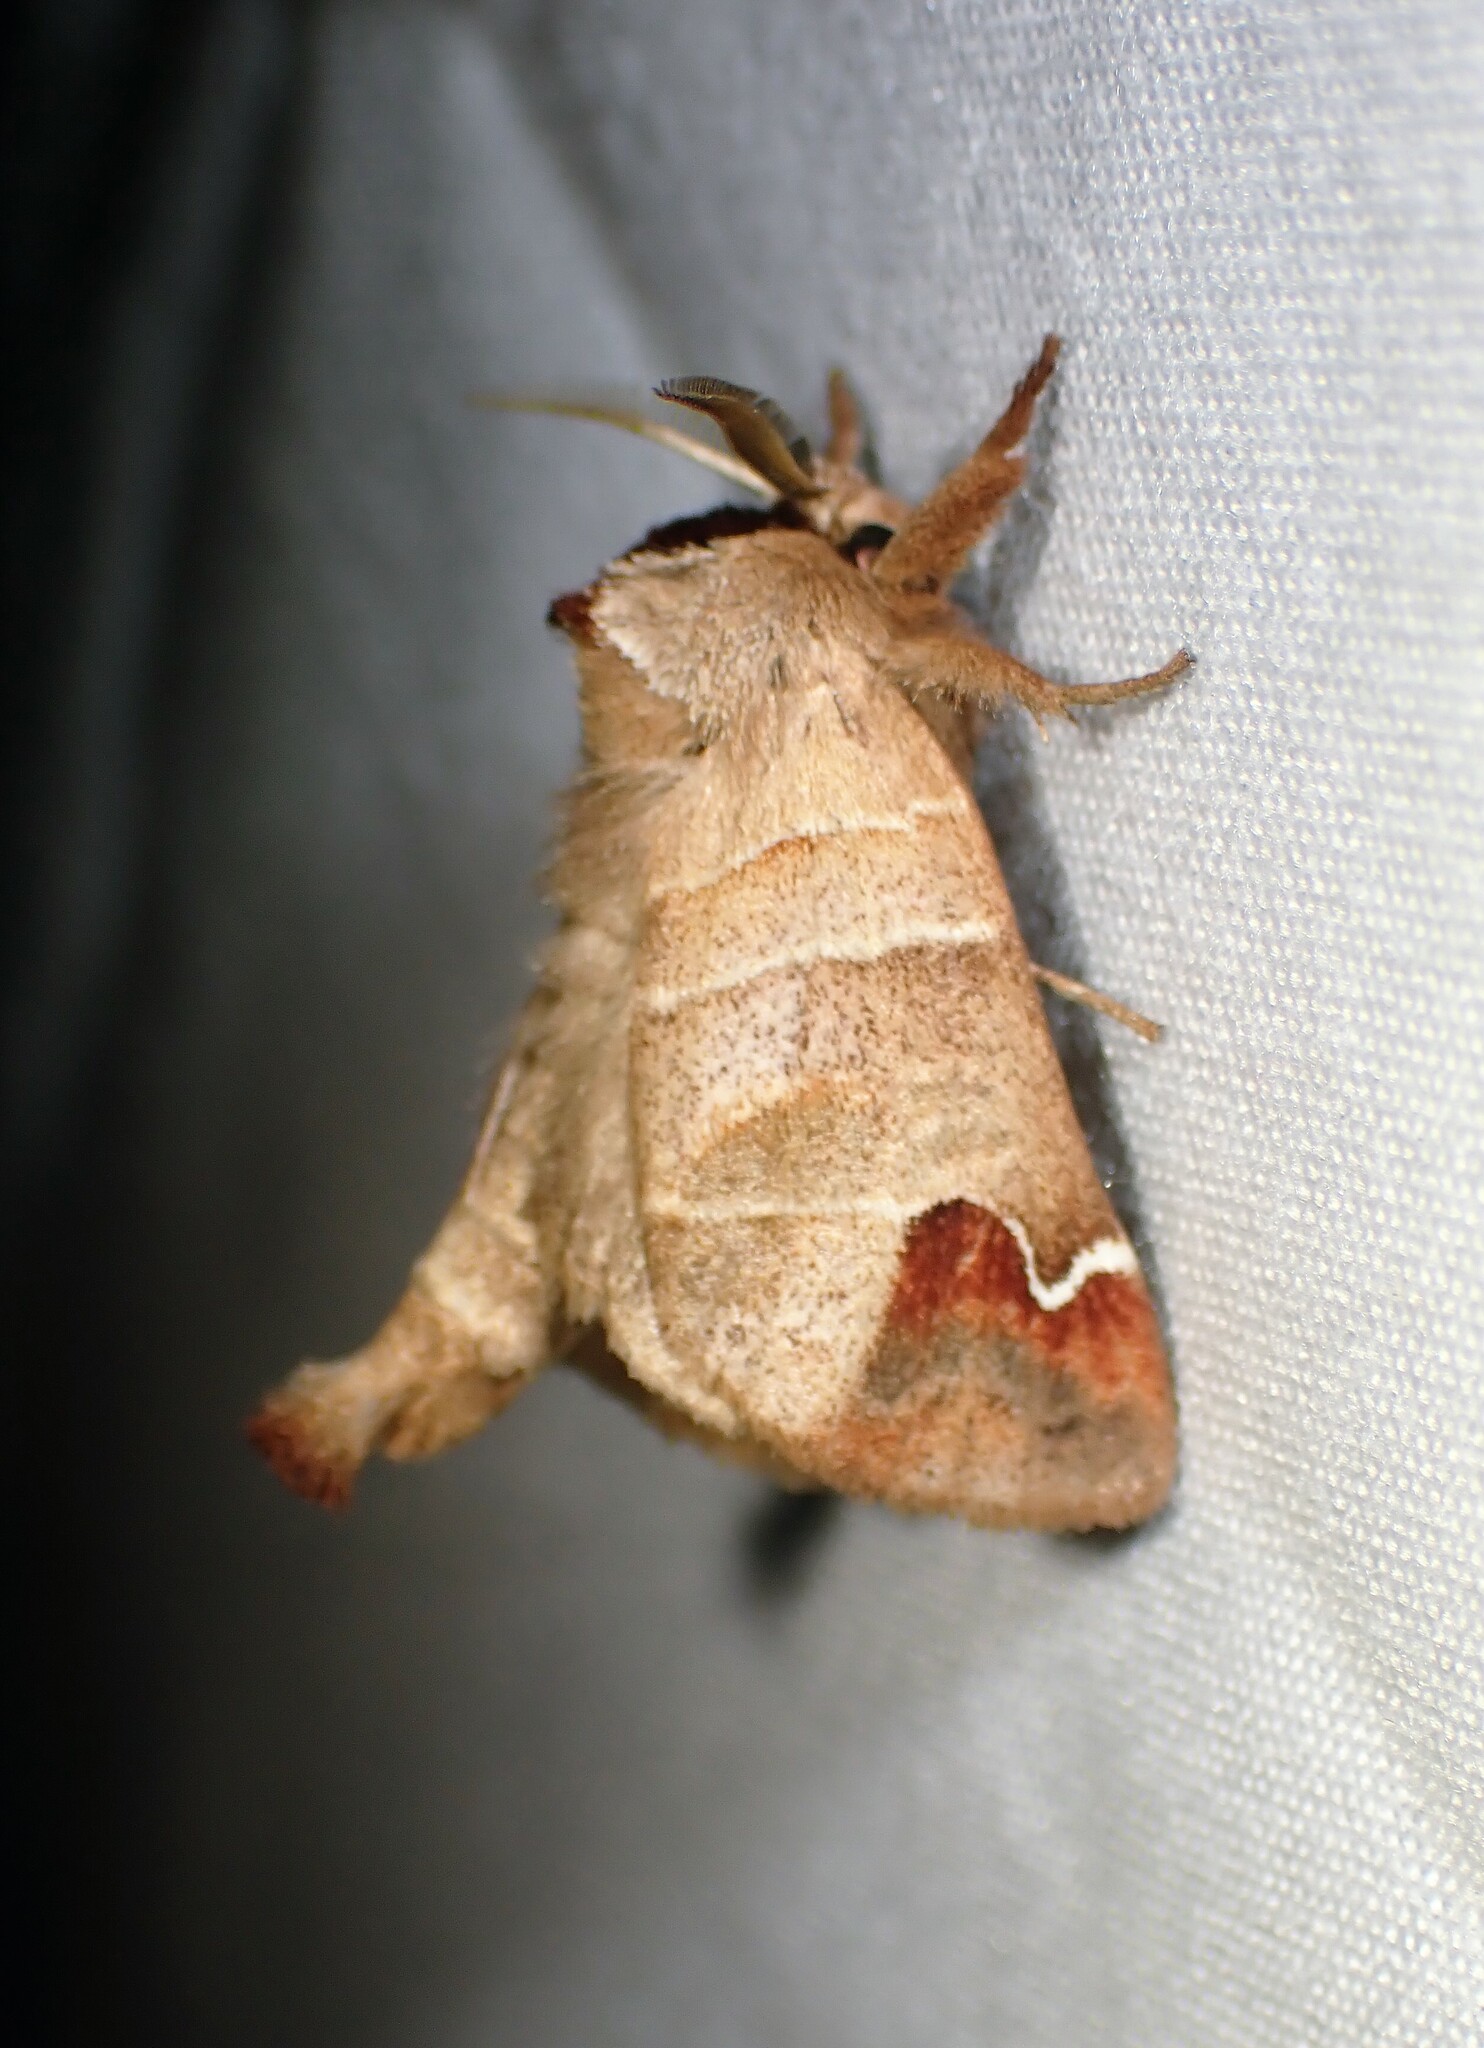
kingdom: Animalia
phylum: Arthropoda
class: Insecta
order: Lepidoptera
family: Notodontidae
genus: Clostera
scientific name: Clostera albosigma
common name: Sigmoid prominent
